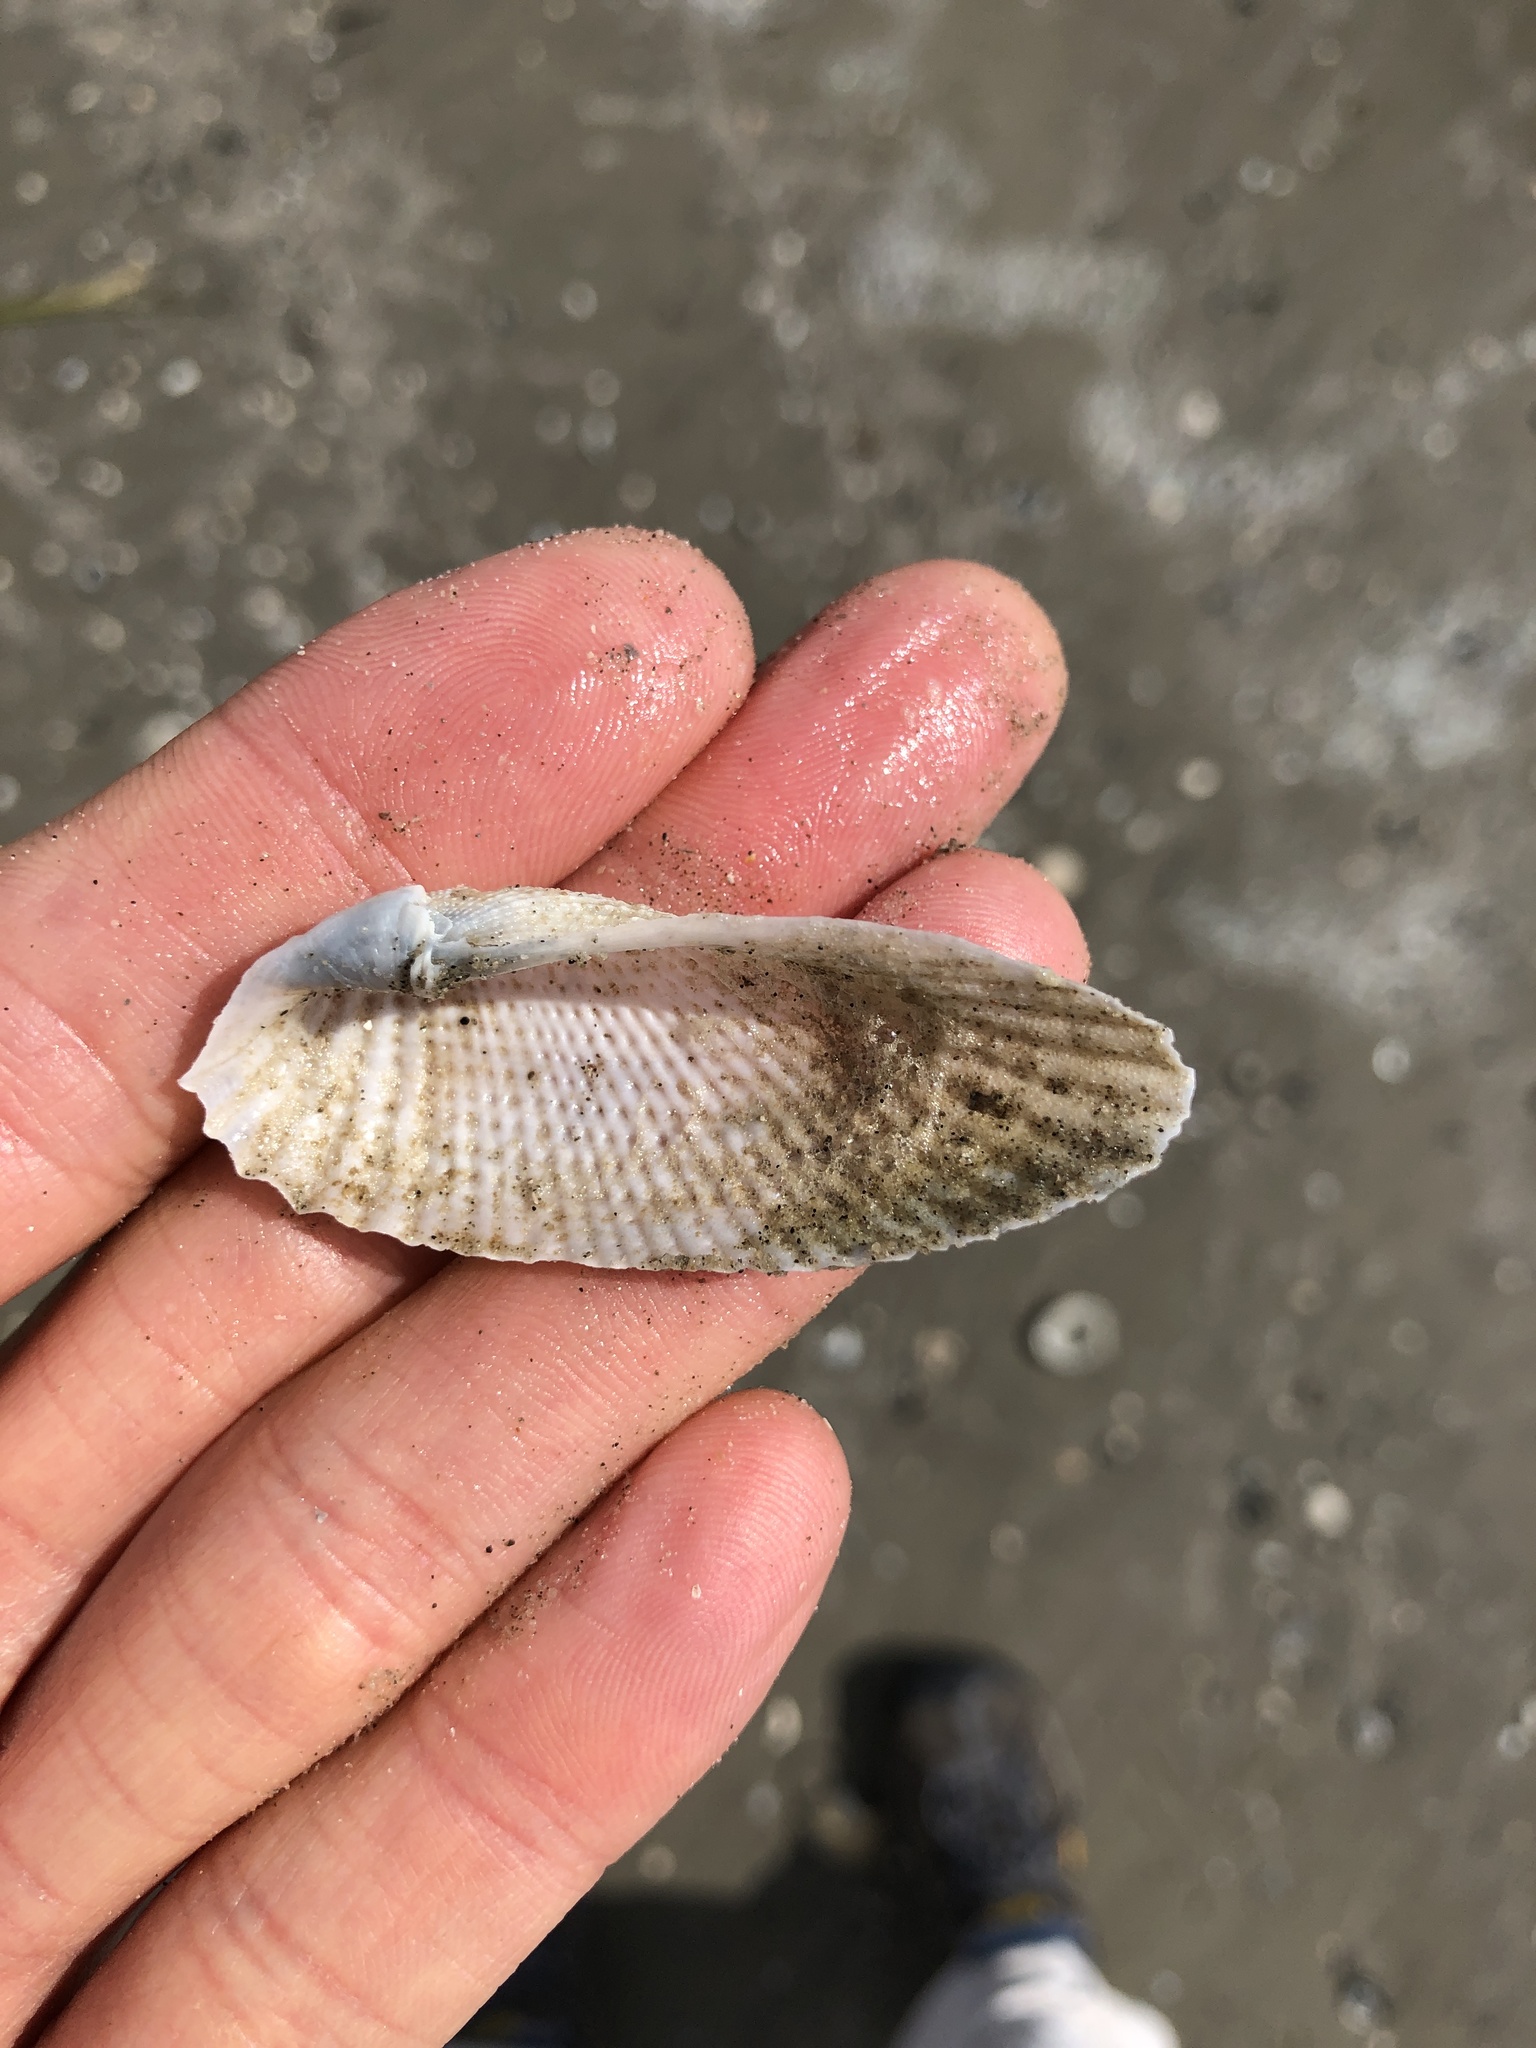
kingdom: Animalia
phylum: Mollusca
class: Bivalvia
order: Myida
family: Pholadidae
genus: Cyrtopleura
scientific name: Cyrtopleura costata
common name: Angel wing
